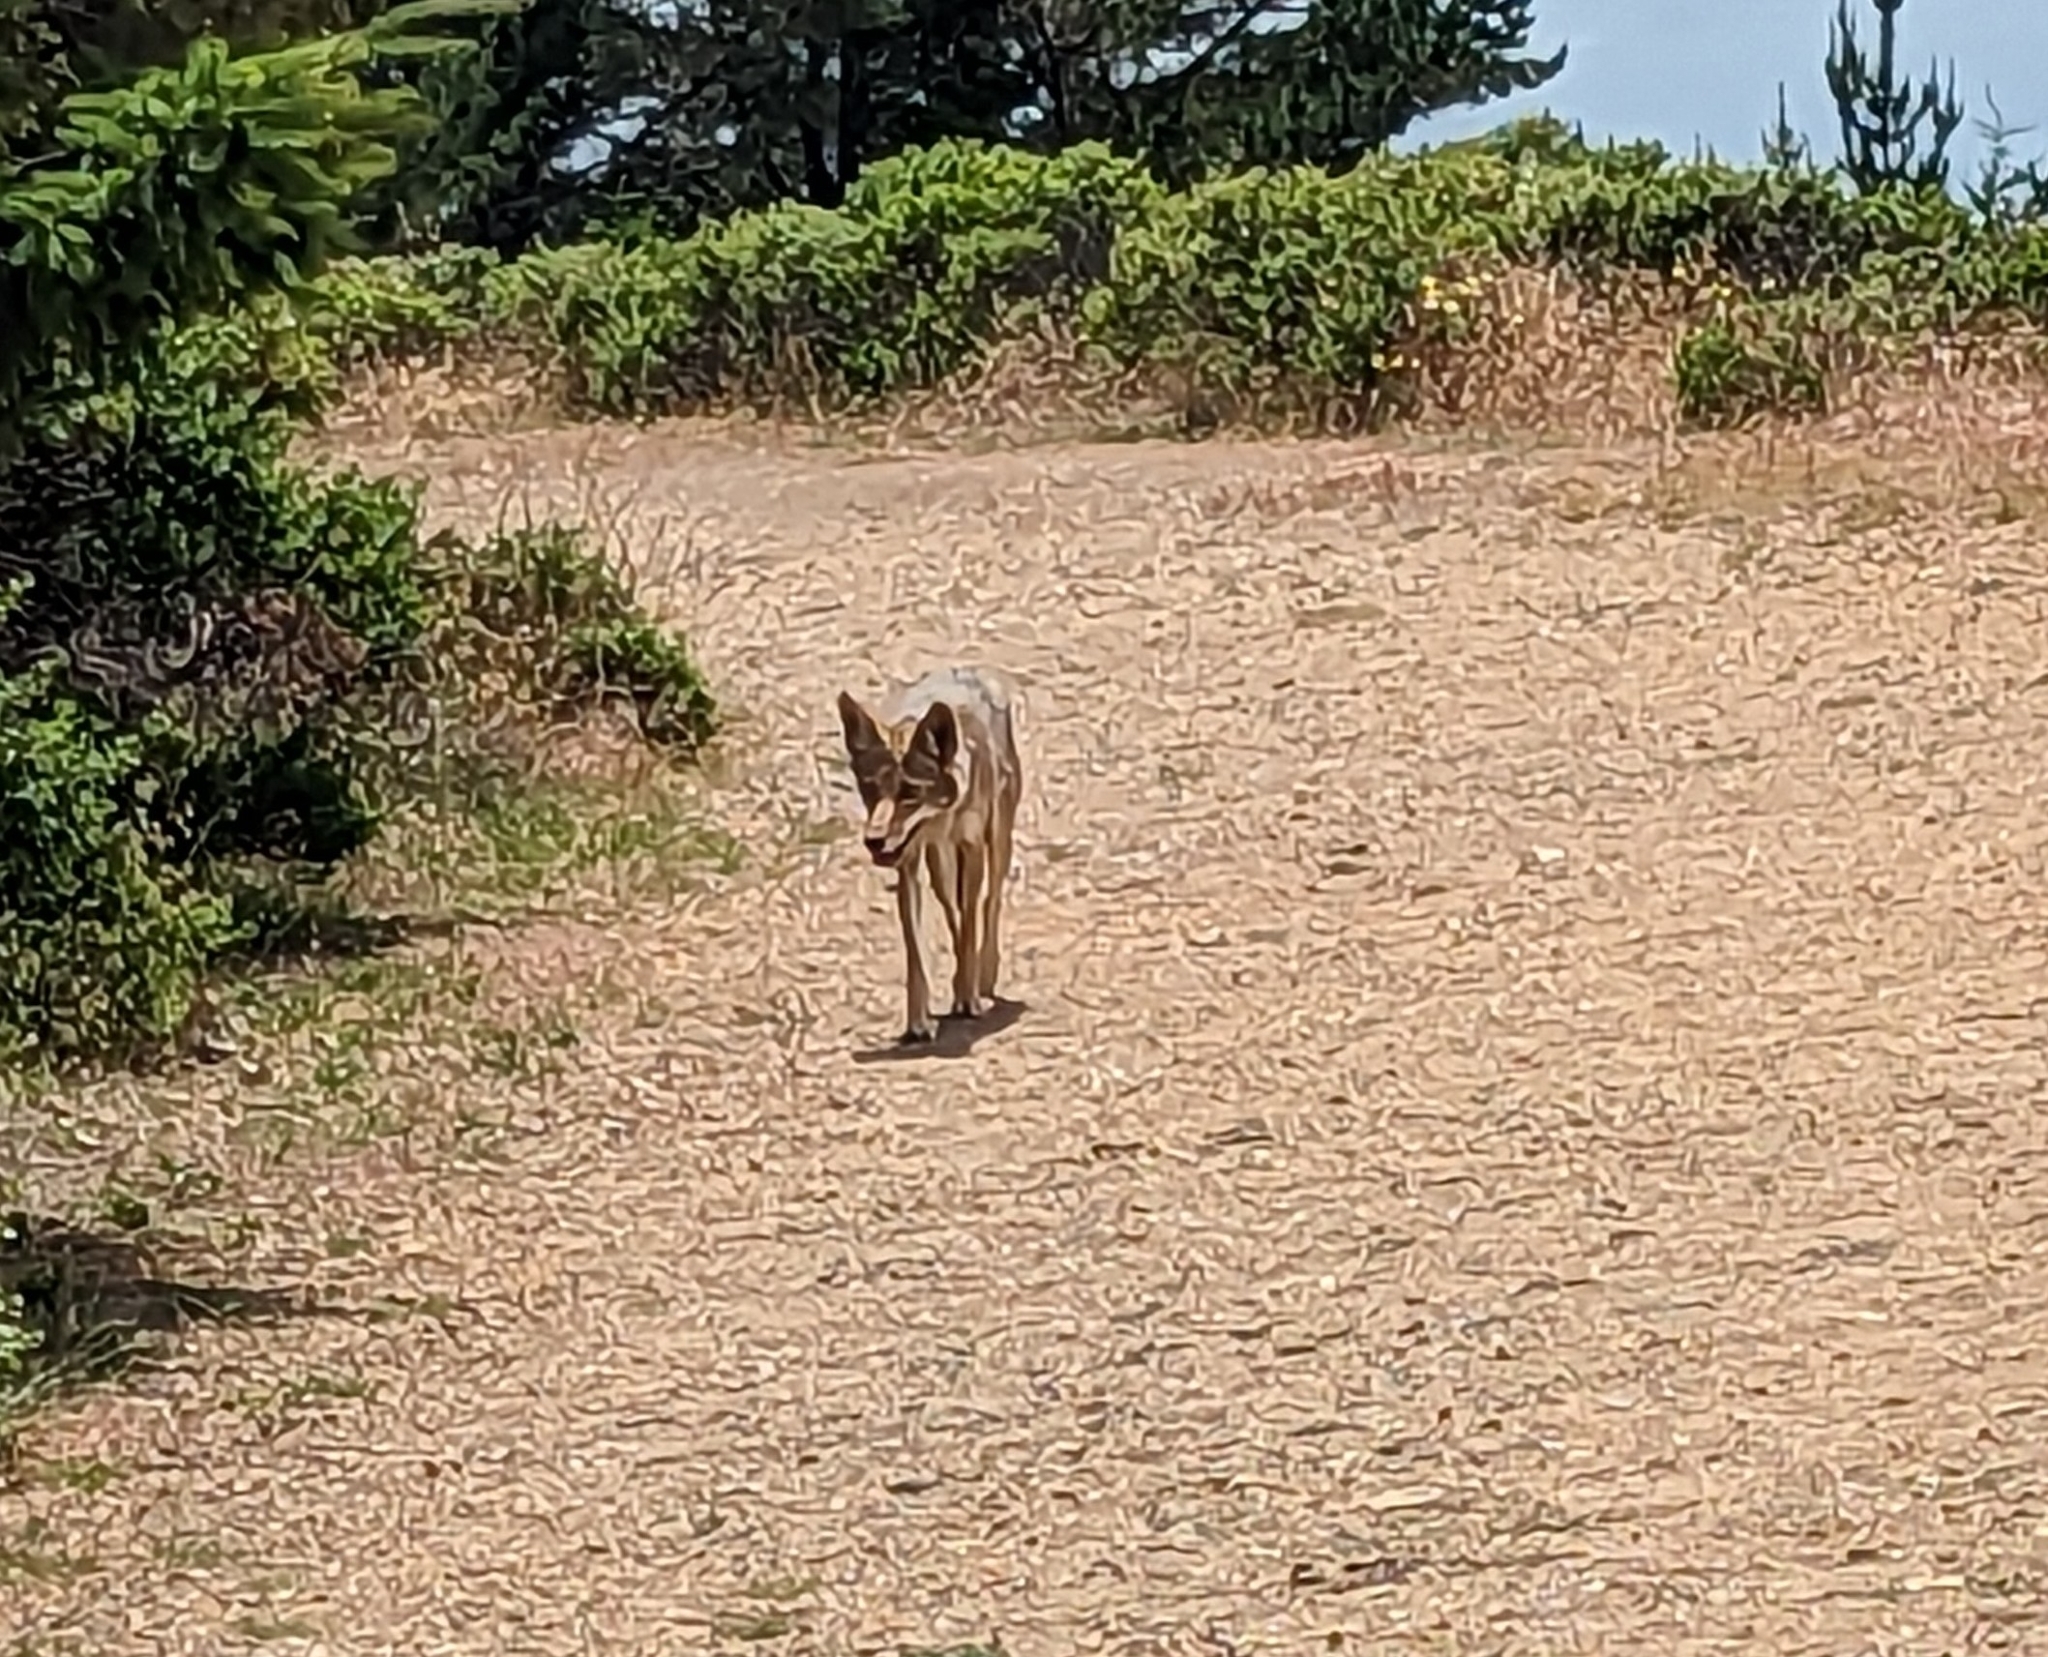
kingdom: Animalia
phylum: Chordata
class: Mammalia
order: Carnivora
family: Canidae
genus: Canis
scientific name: Canis latrans
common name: Coyote
